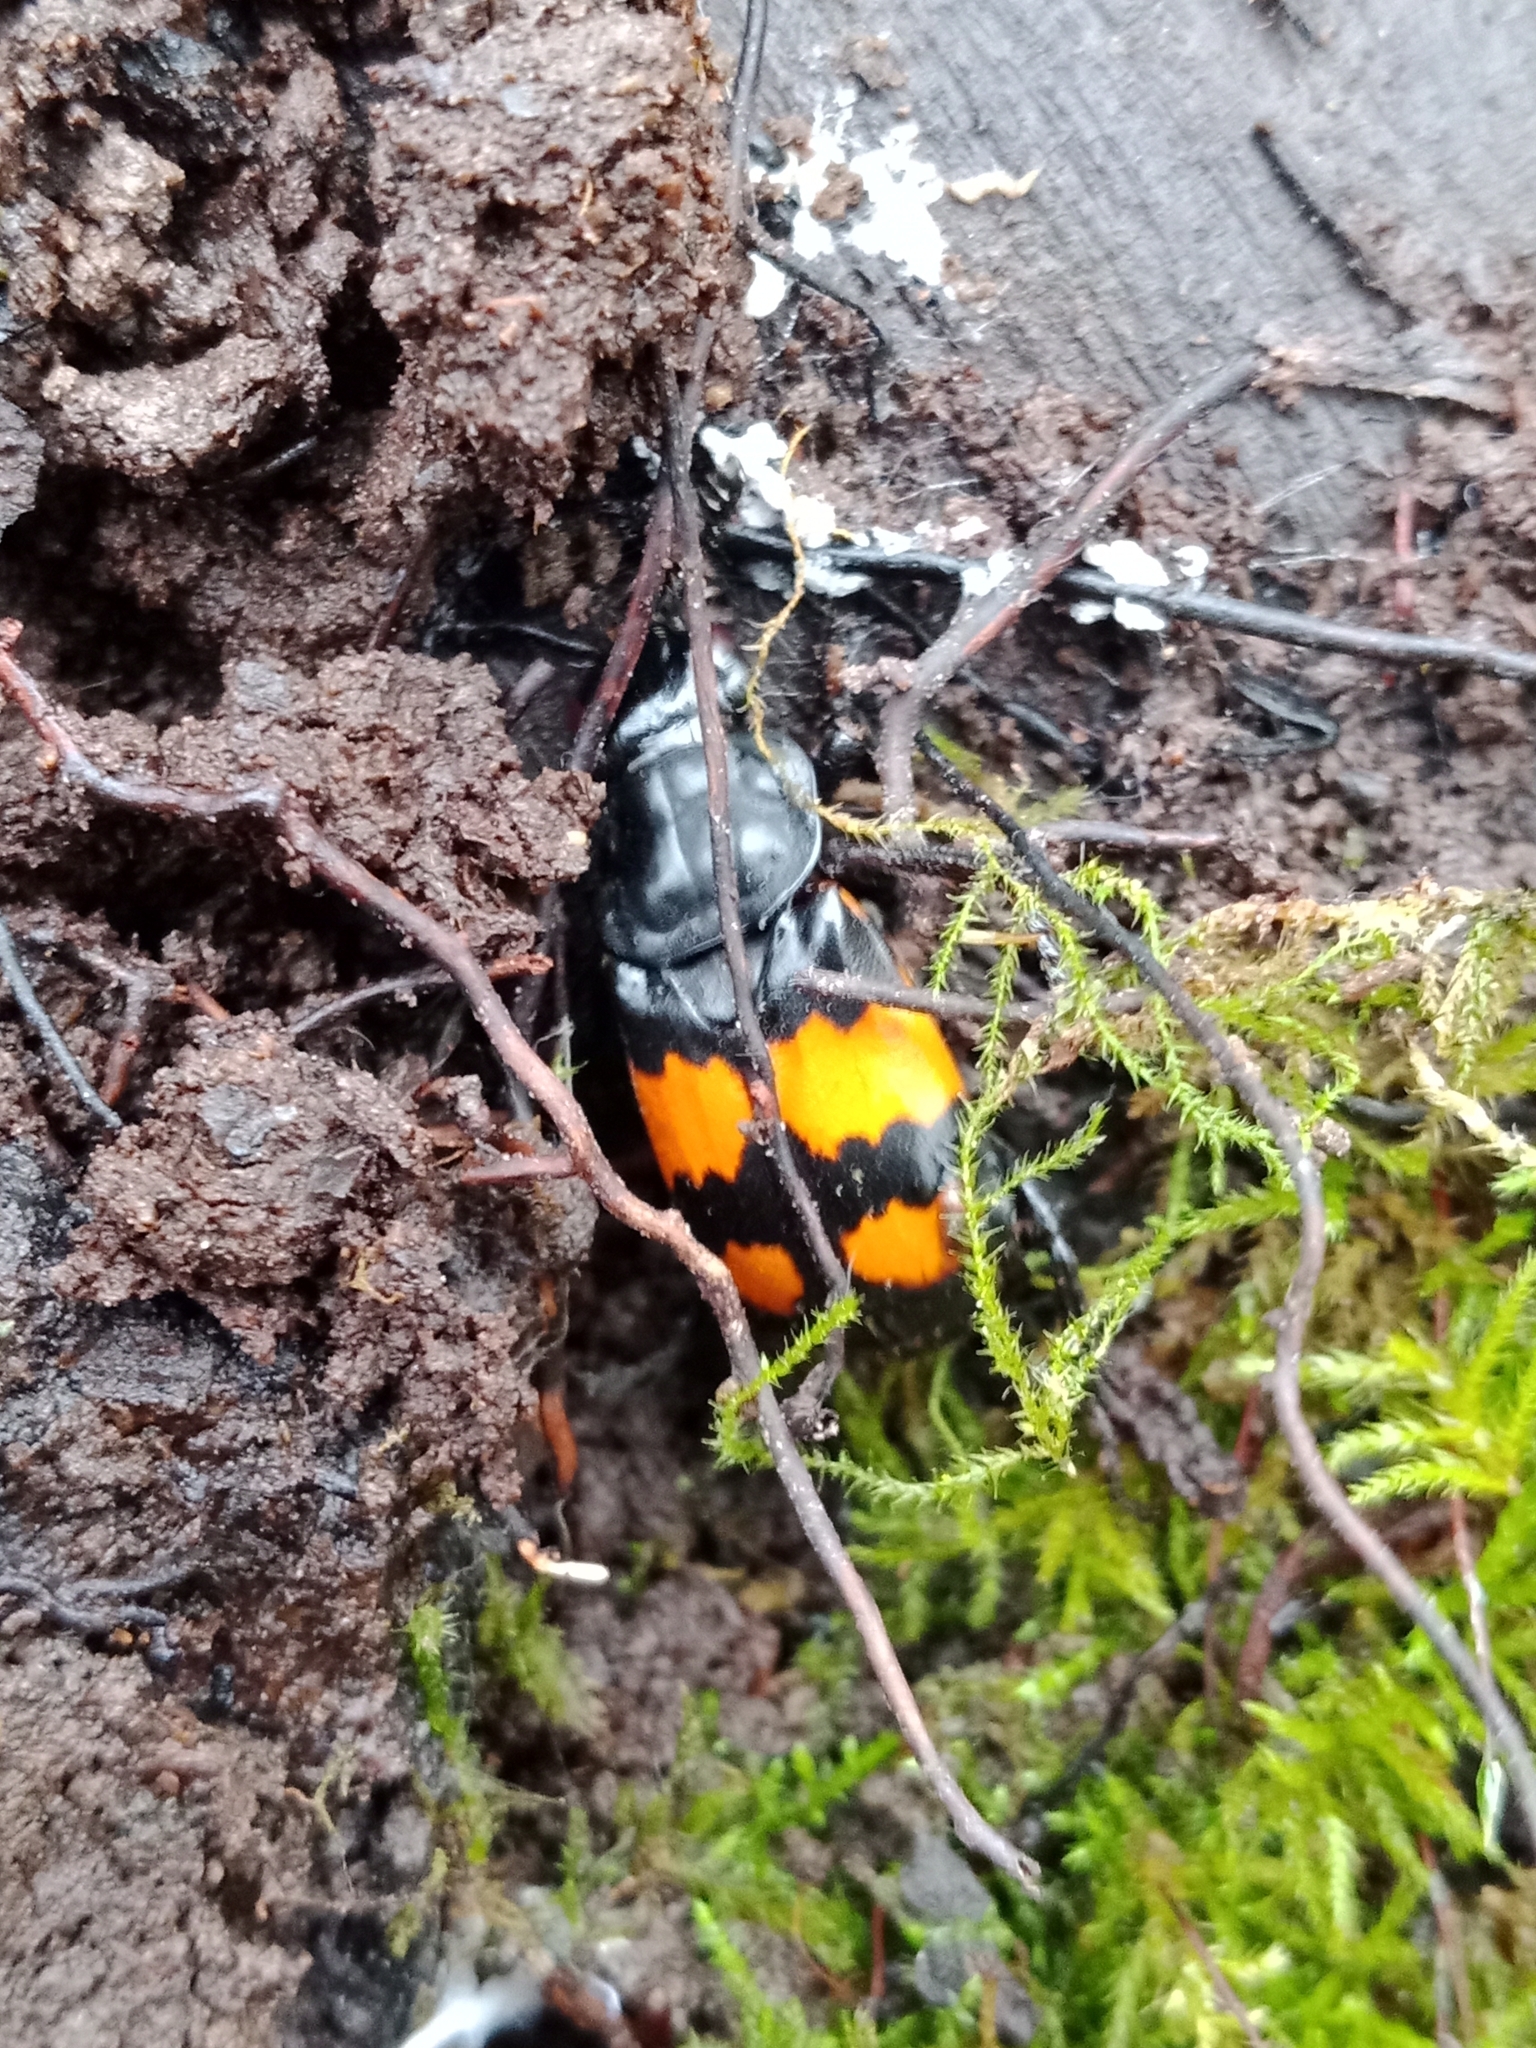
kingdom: Animalia
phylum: Arthropoda
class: Insecta
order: Coleoptera
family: Staphylinidae
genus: Nicrophorus
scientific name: Nicrophorus vespilloides
